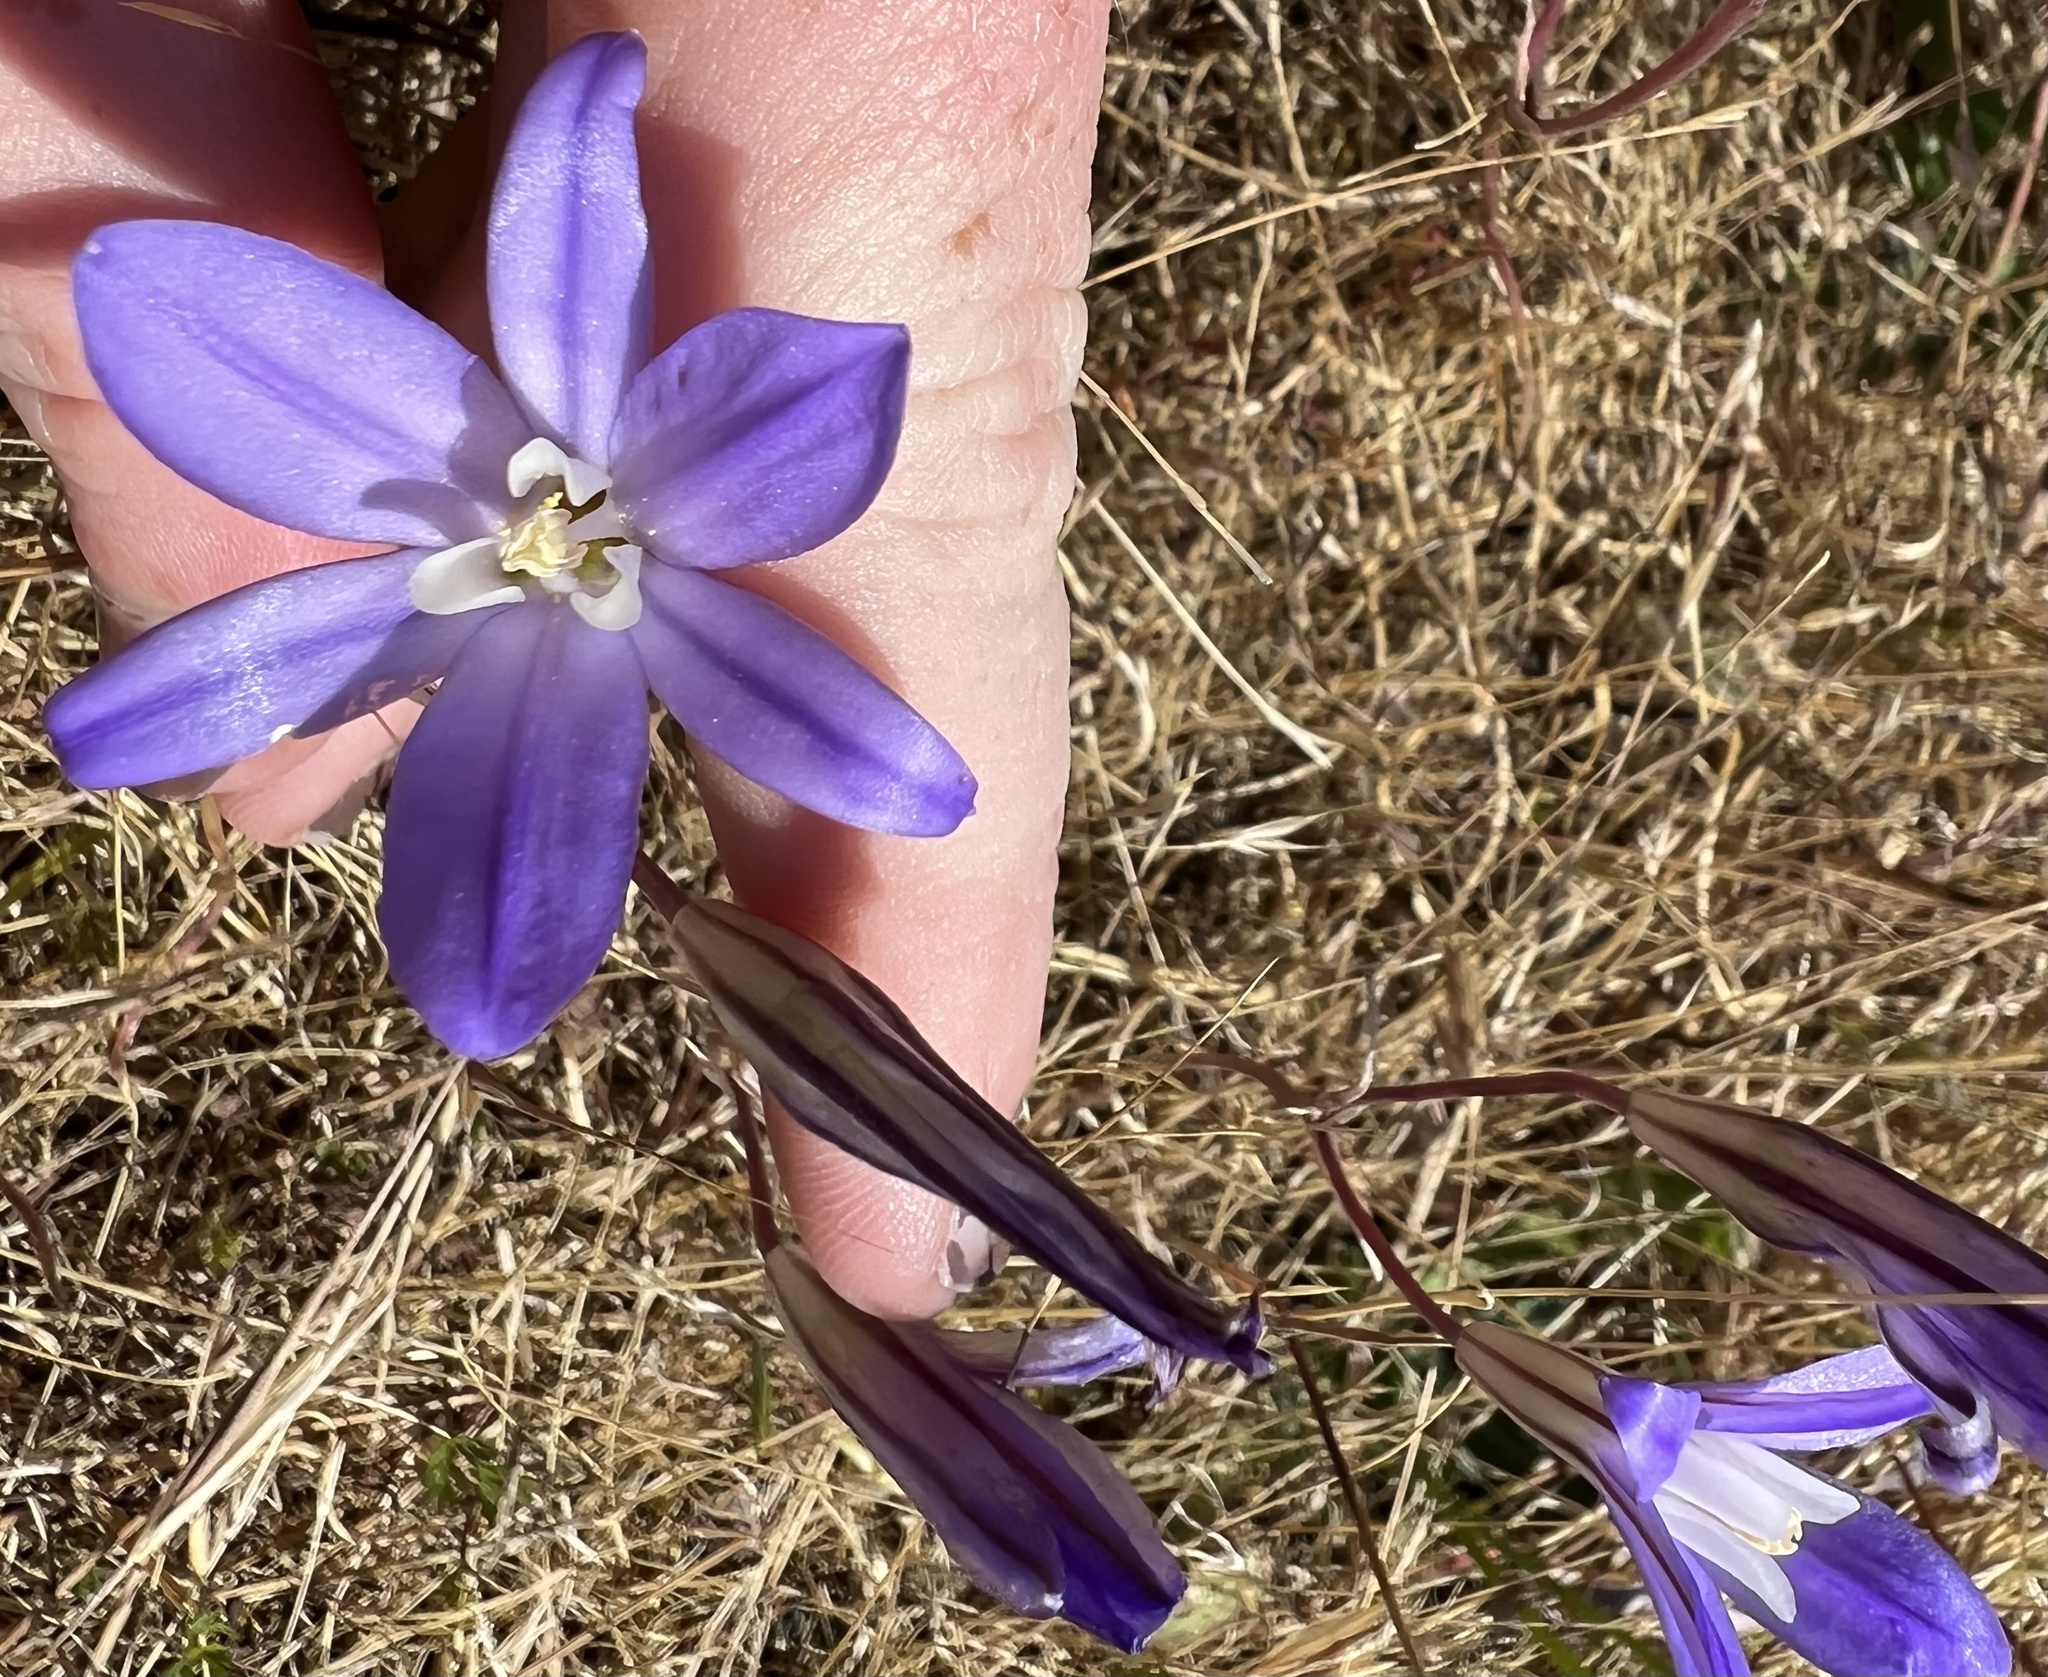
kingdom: Plantae
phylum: Tracheophyta
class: Liliopsida
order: Asparagales
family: Asparagaceae
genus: Brodiaea
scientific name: Brodiaea coronaria
